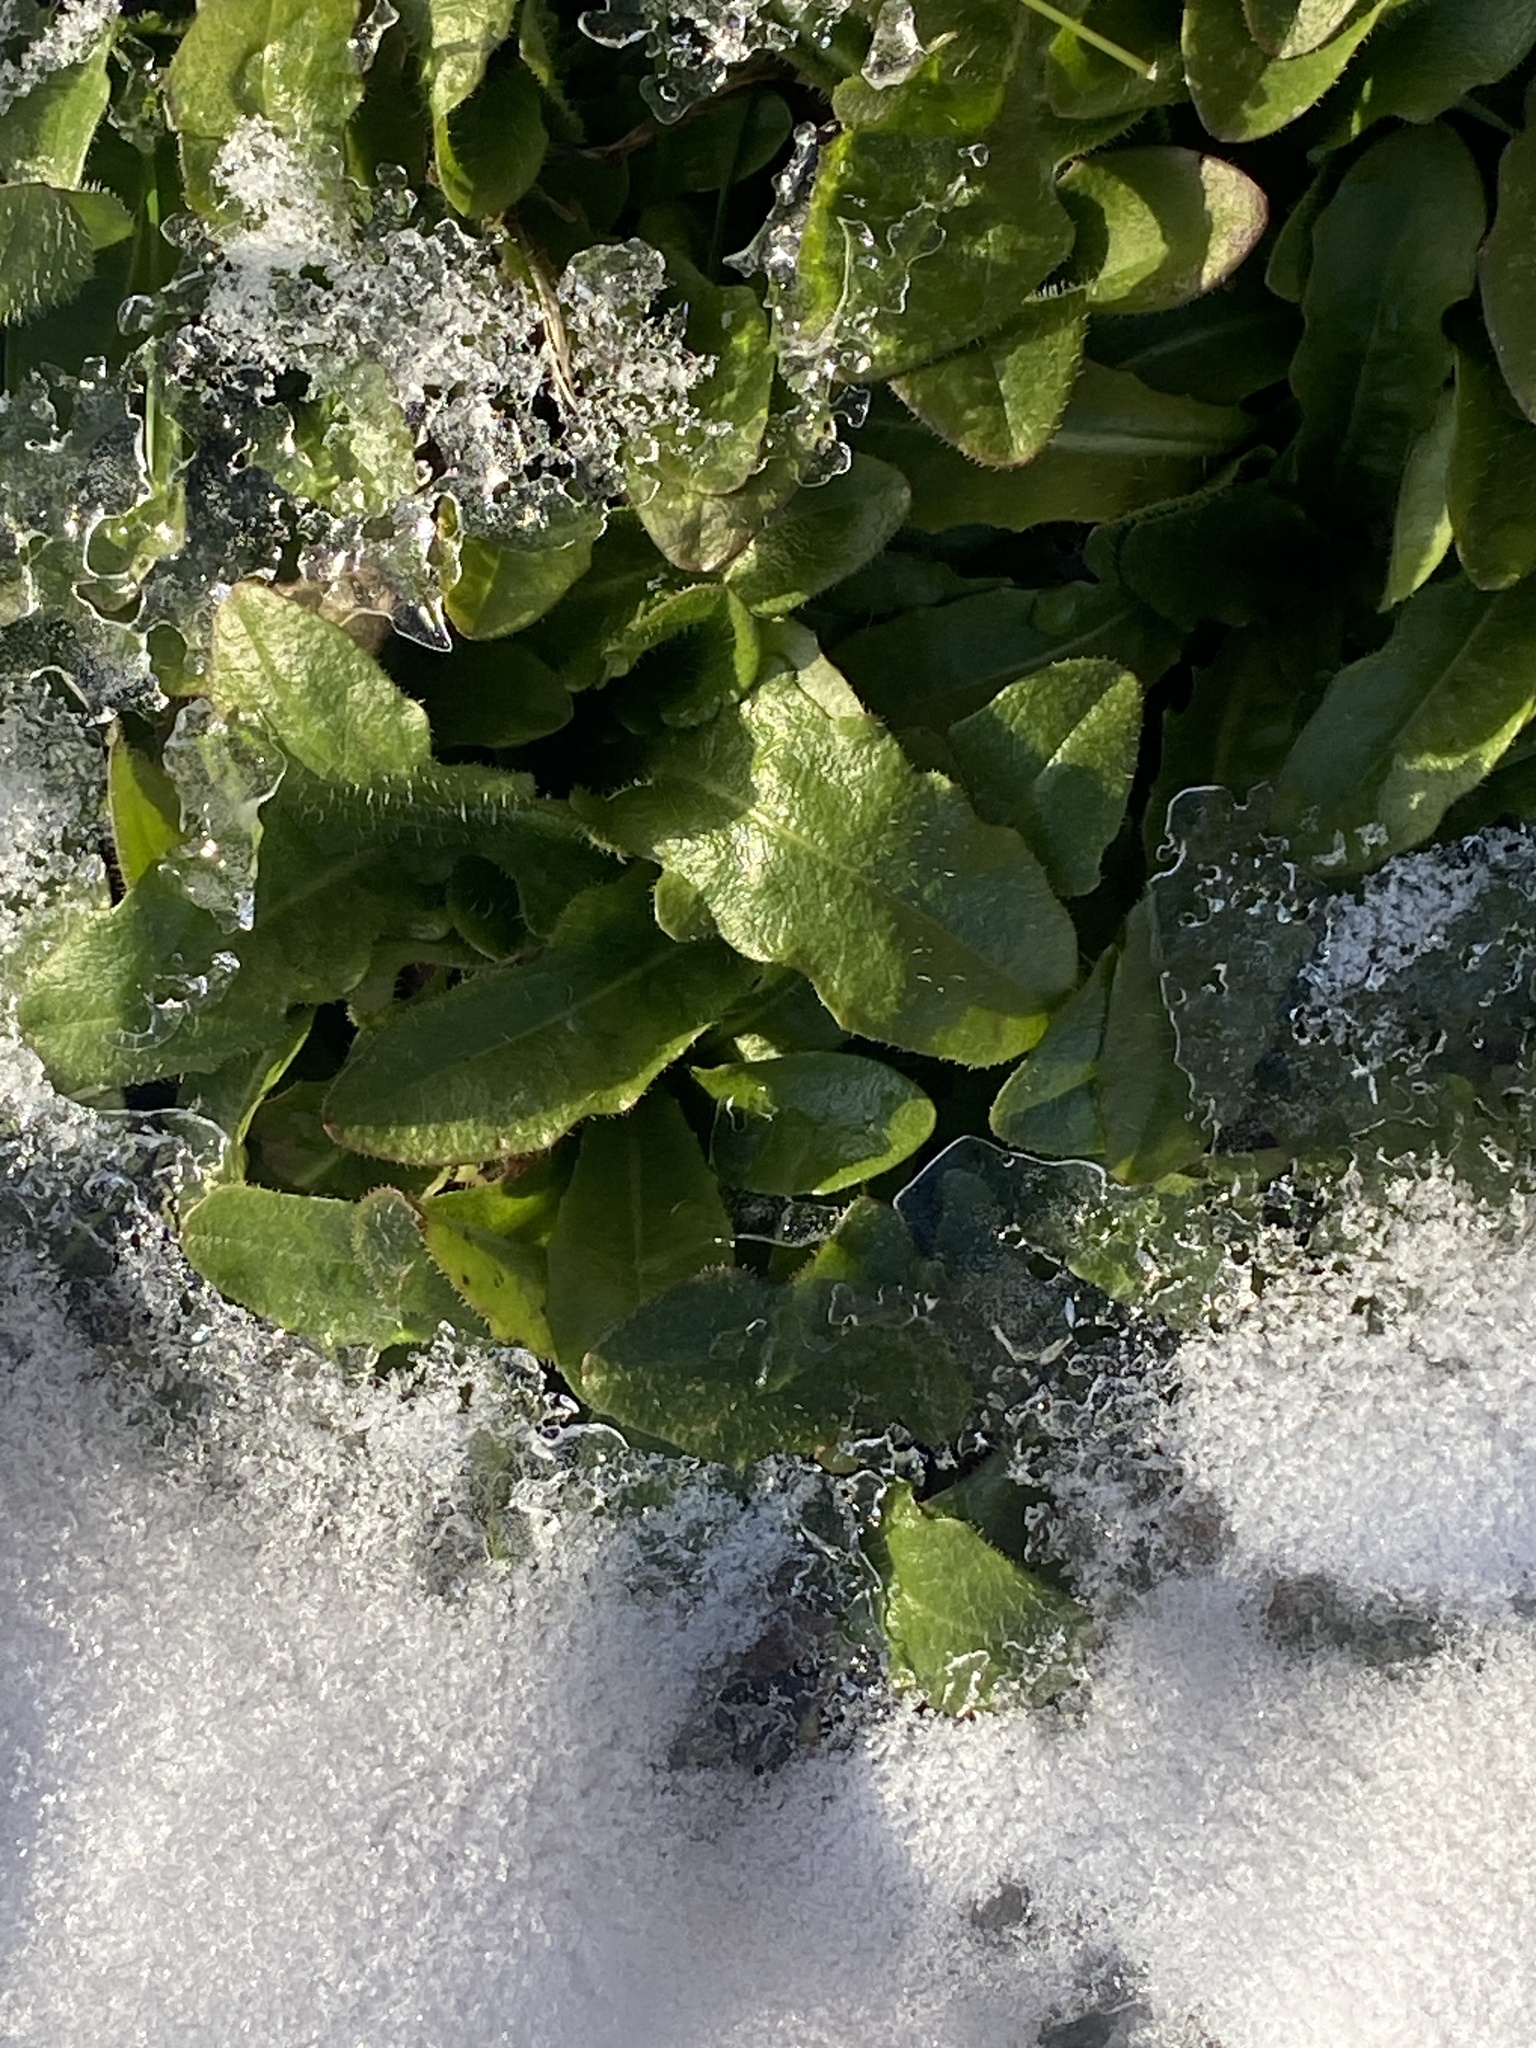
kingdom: Plantae
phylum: Tracheophyta
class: Magnoliopsida
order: Asterales
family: Asteraceae
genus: Hypochaeris
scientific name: Hypochaeris radicata
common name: Flatweed
